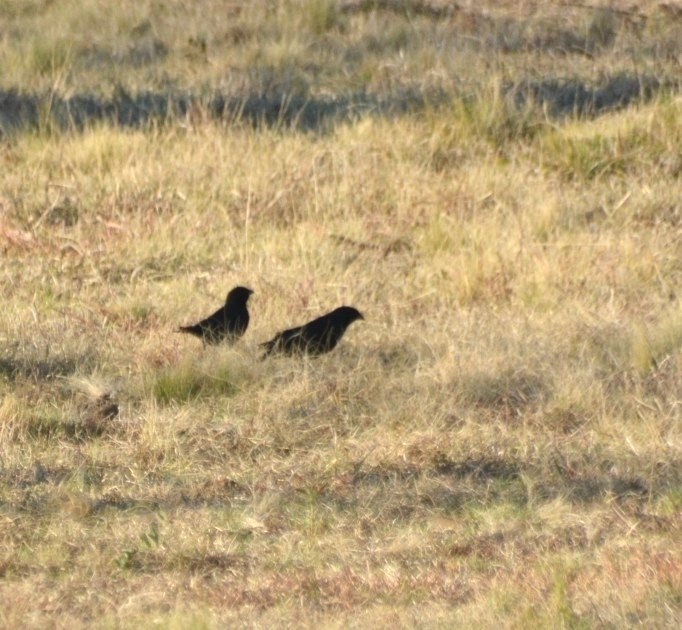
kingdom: Animalia
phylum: Chordata
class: Aves
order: Passeriformes
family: Icteridae
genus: Molothrus
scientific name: Molothrus bonariensis
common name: Shiny cowbird
